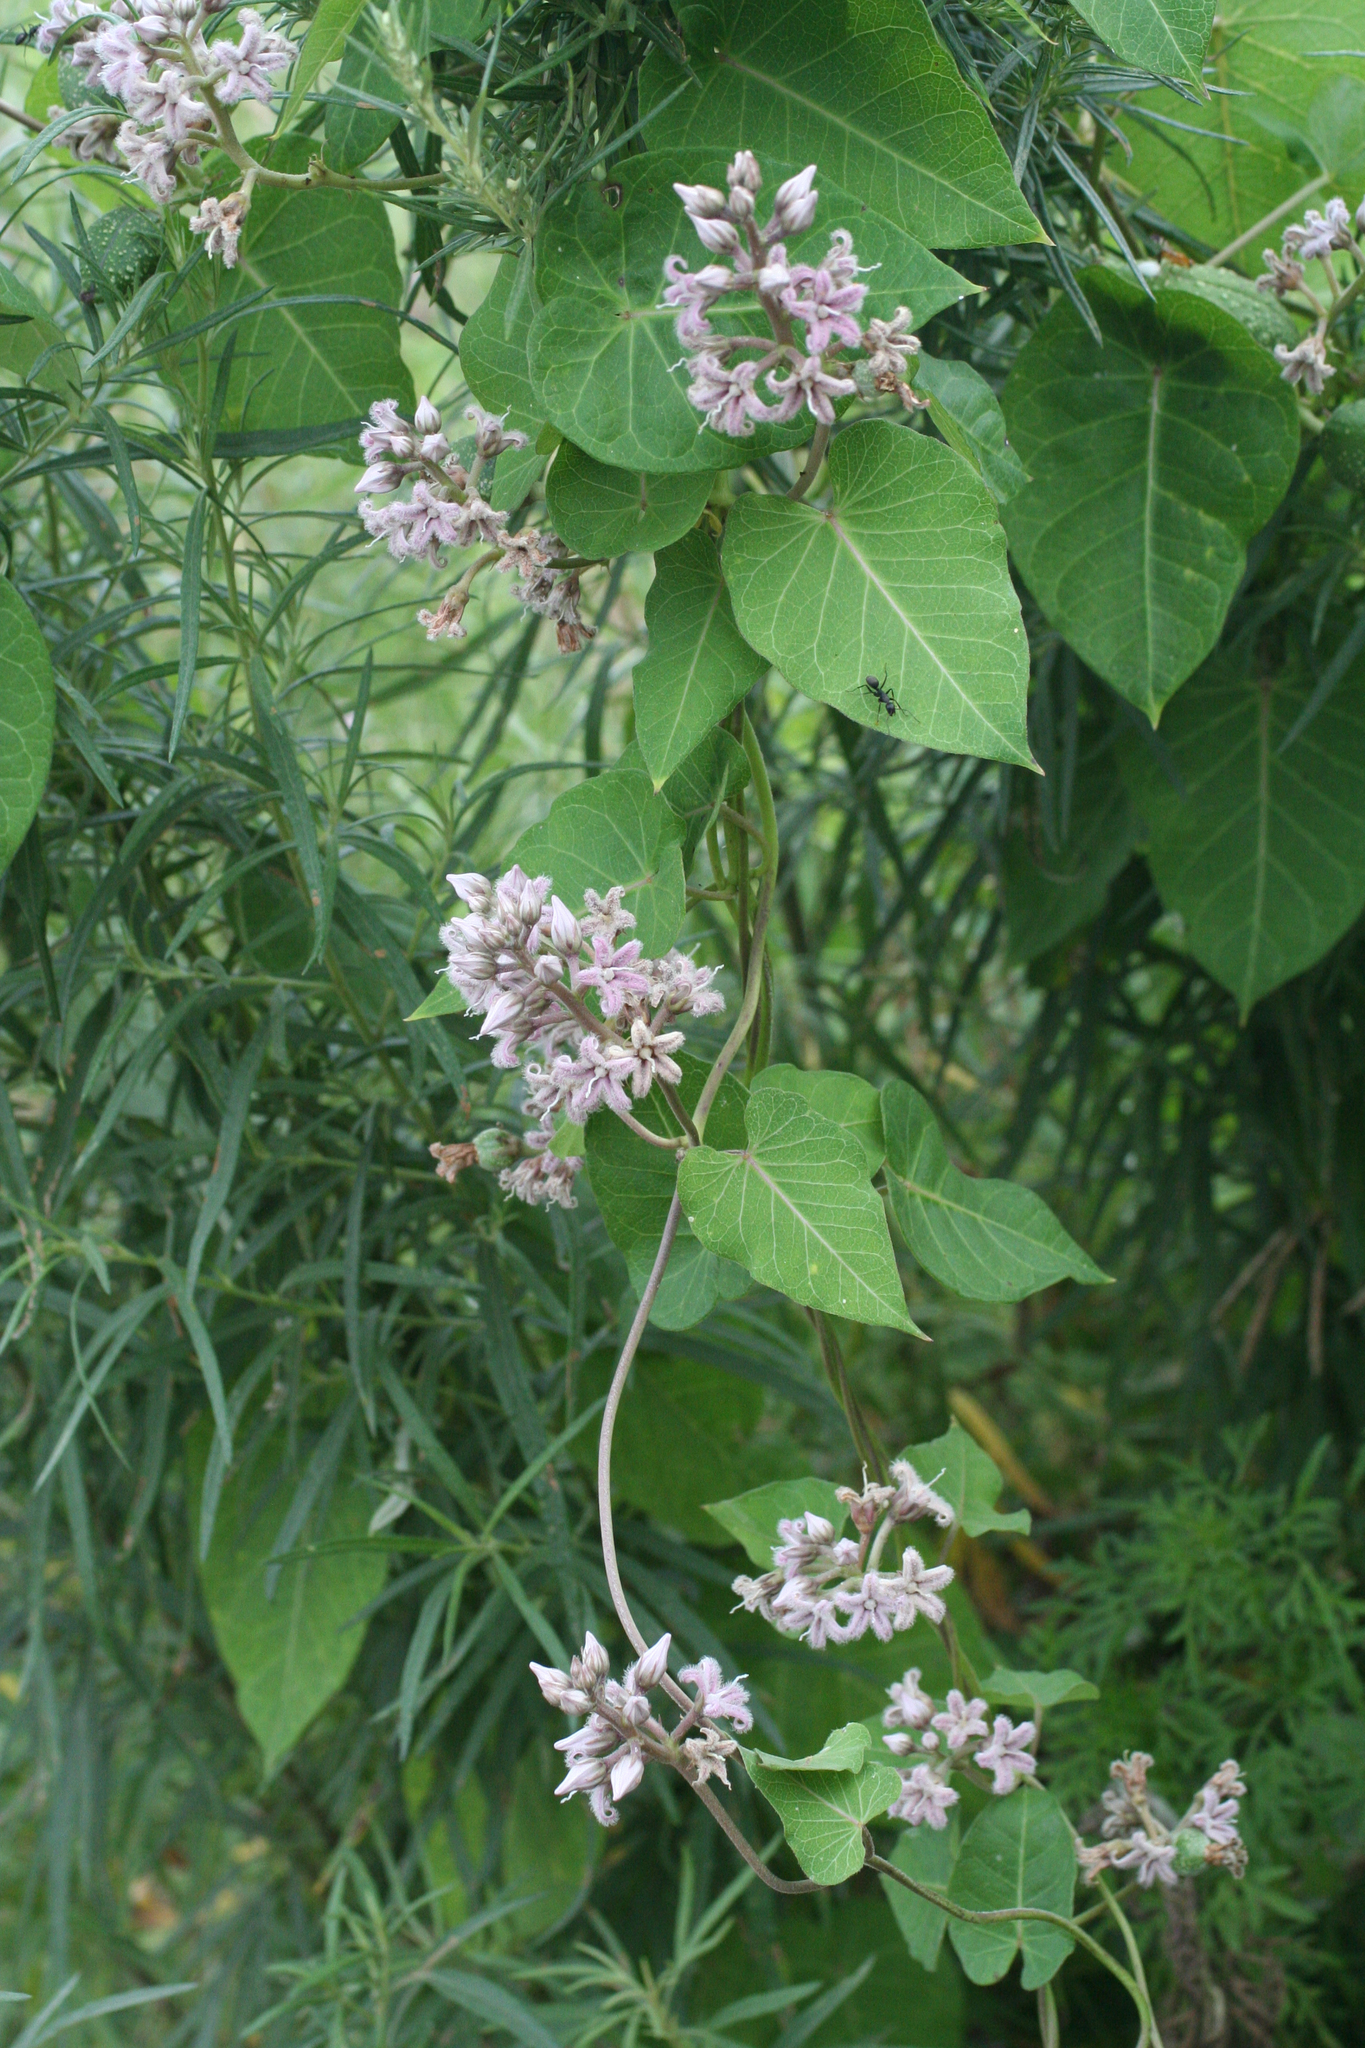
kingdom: Plantae
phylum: Tracheophyta
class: Magnoliopsida
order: Gentianales
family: Apocynaceae
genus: Cynanchum
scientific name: Cynanchum rostellatum
